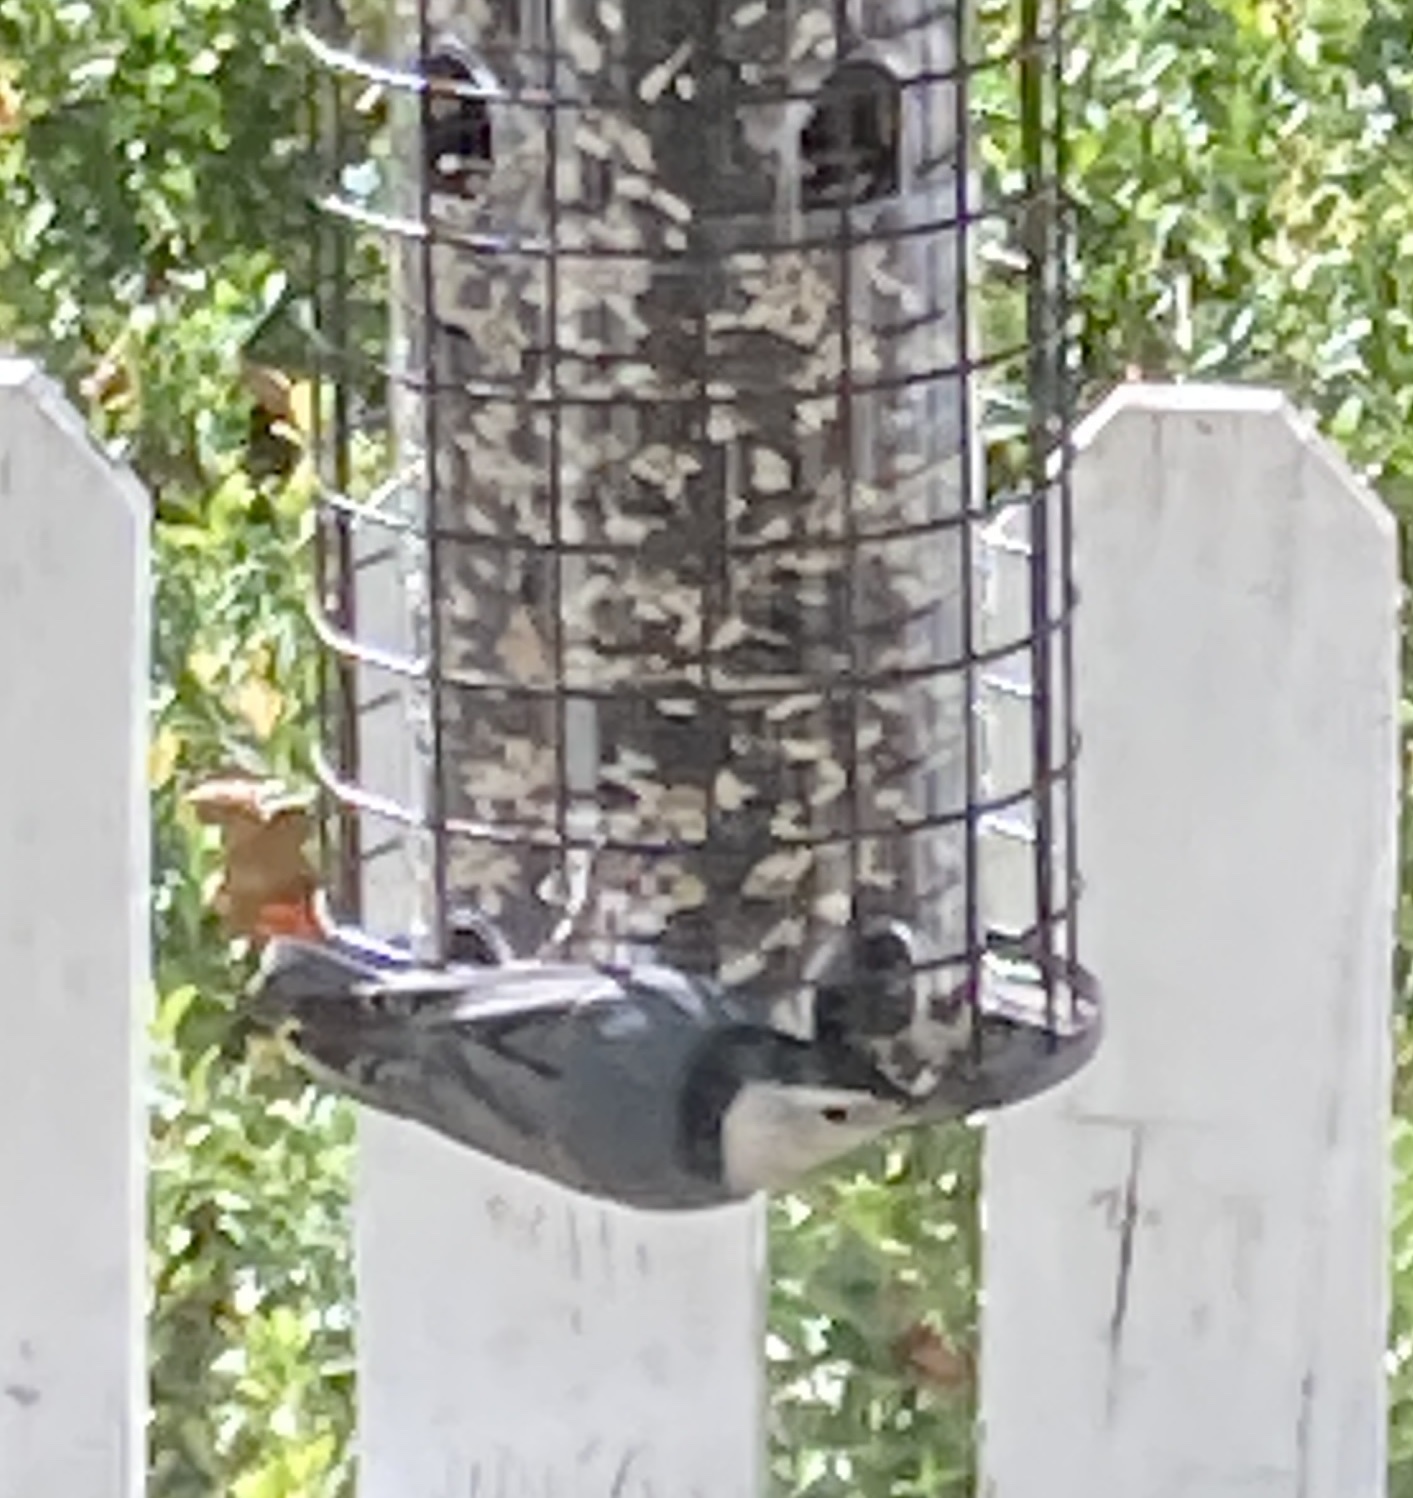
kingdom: Animalia
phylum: Chordata
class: Aves
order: Passeriformes
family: Sittidae
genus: Sitta
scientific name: Sitta carolinensis
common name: White-breasted nuthatch
